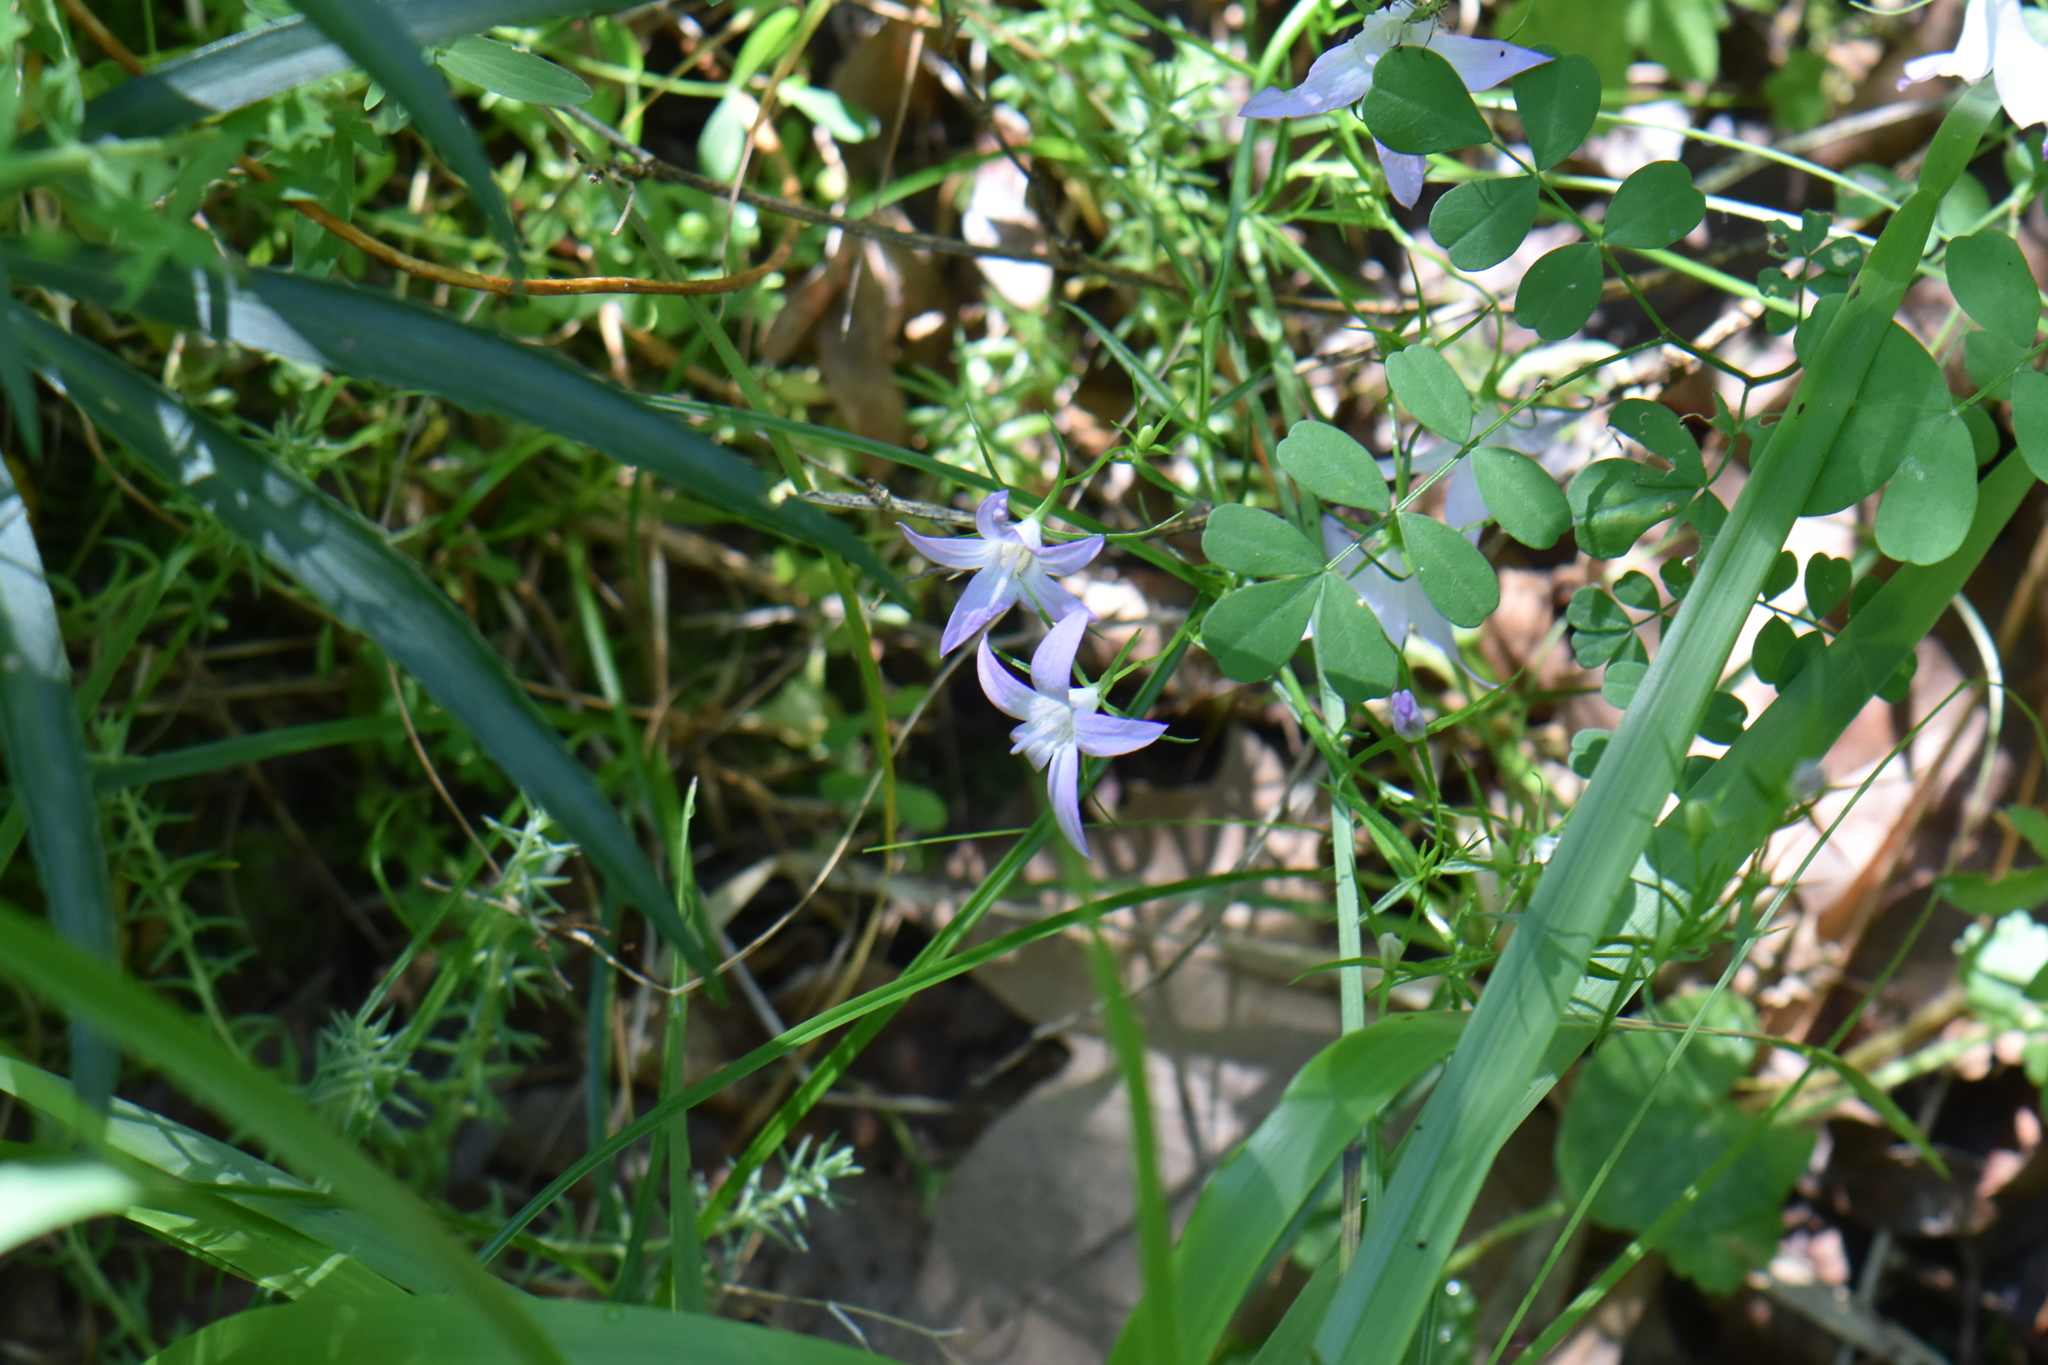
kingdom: Plantae
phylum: Tracheophyta
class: Magnoliopsida
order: Asterales
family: Campanulaceae
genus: Campanula
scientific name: Campanula rapunculus
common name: Rampion bellflower
